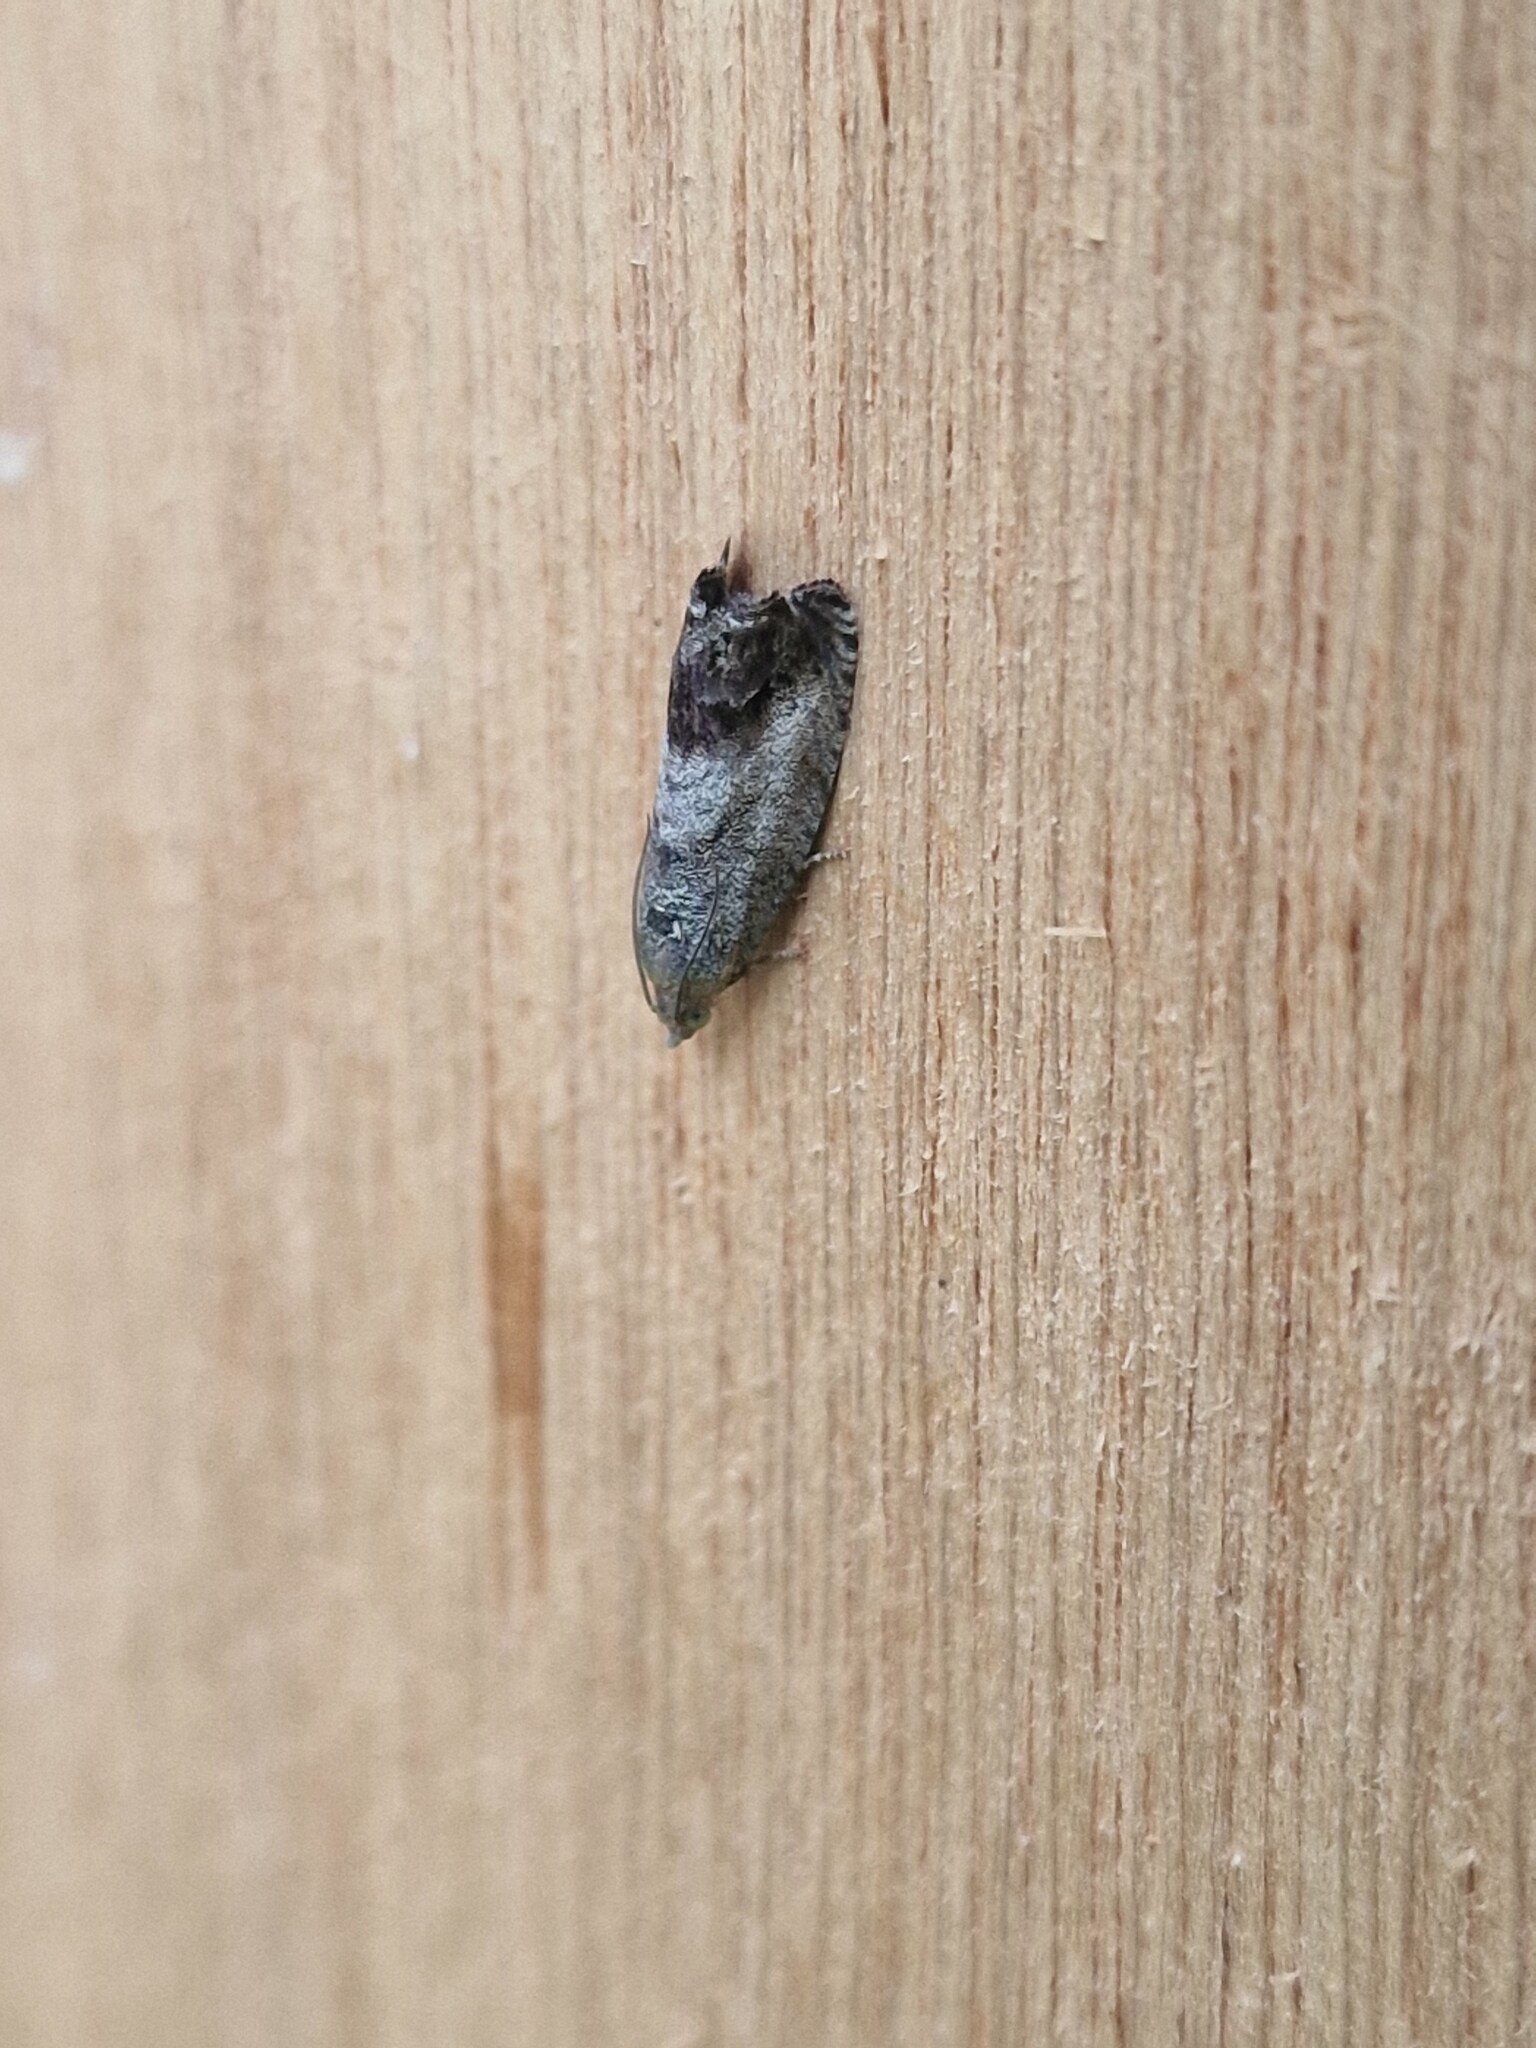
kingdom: Animalia
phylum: Arthropoda
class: Insecta
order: Lepidoptera
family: Tortricidae
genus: Cydia
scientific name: Cydia splendana
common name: De: kastanienwickler, eichenwickler es: oruga de la castaña fr: carpocapse des châtaignes it: cidia o tortrice tardiva delle castagne pt: bichado das castanhas gb: acorn moth, chestnut fruit tortrix
